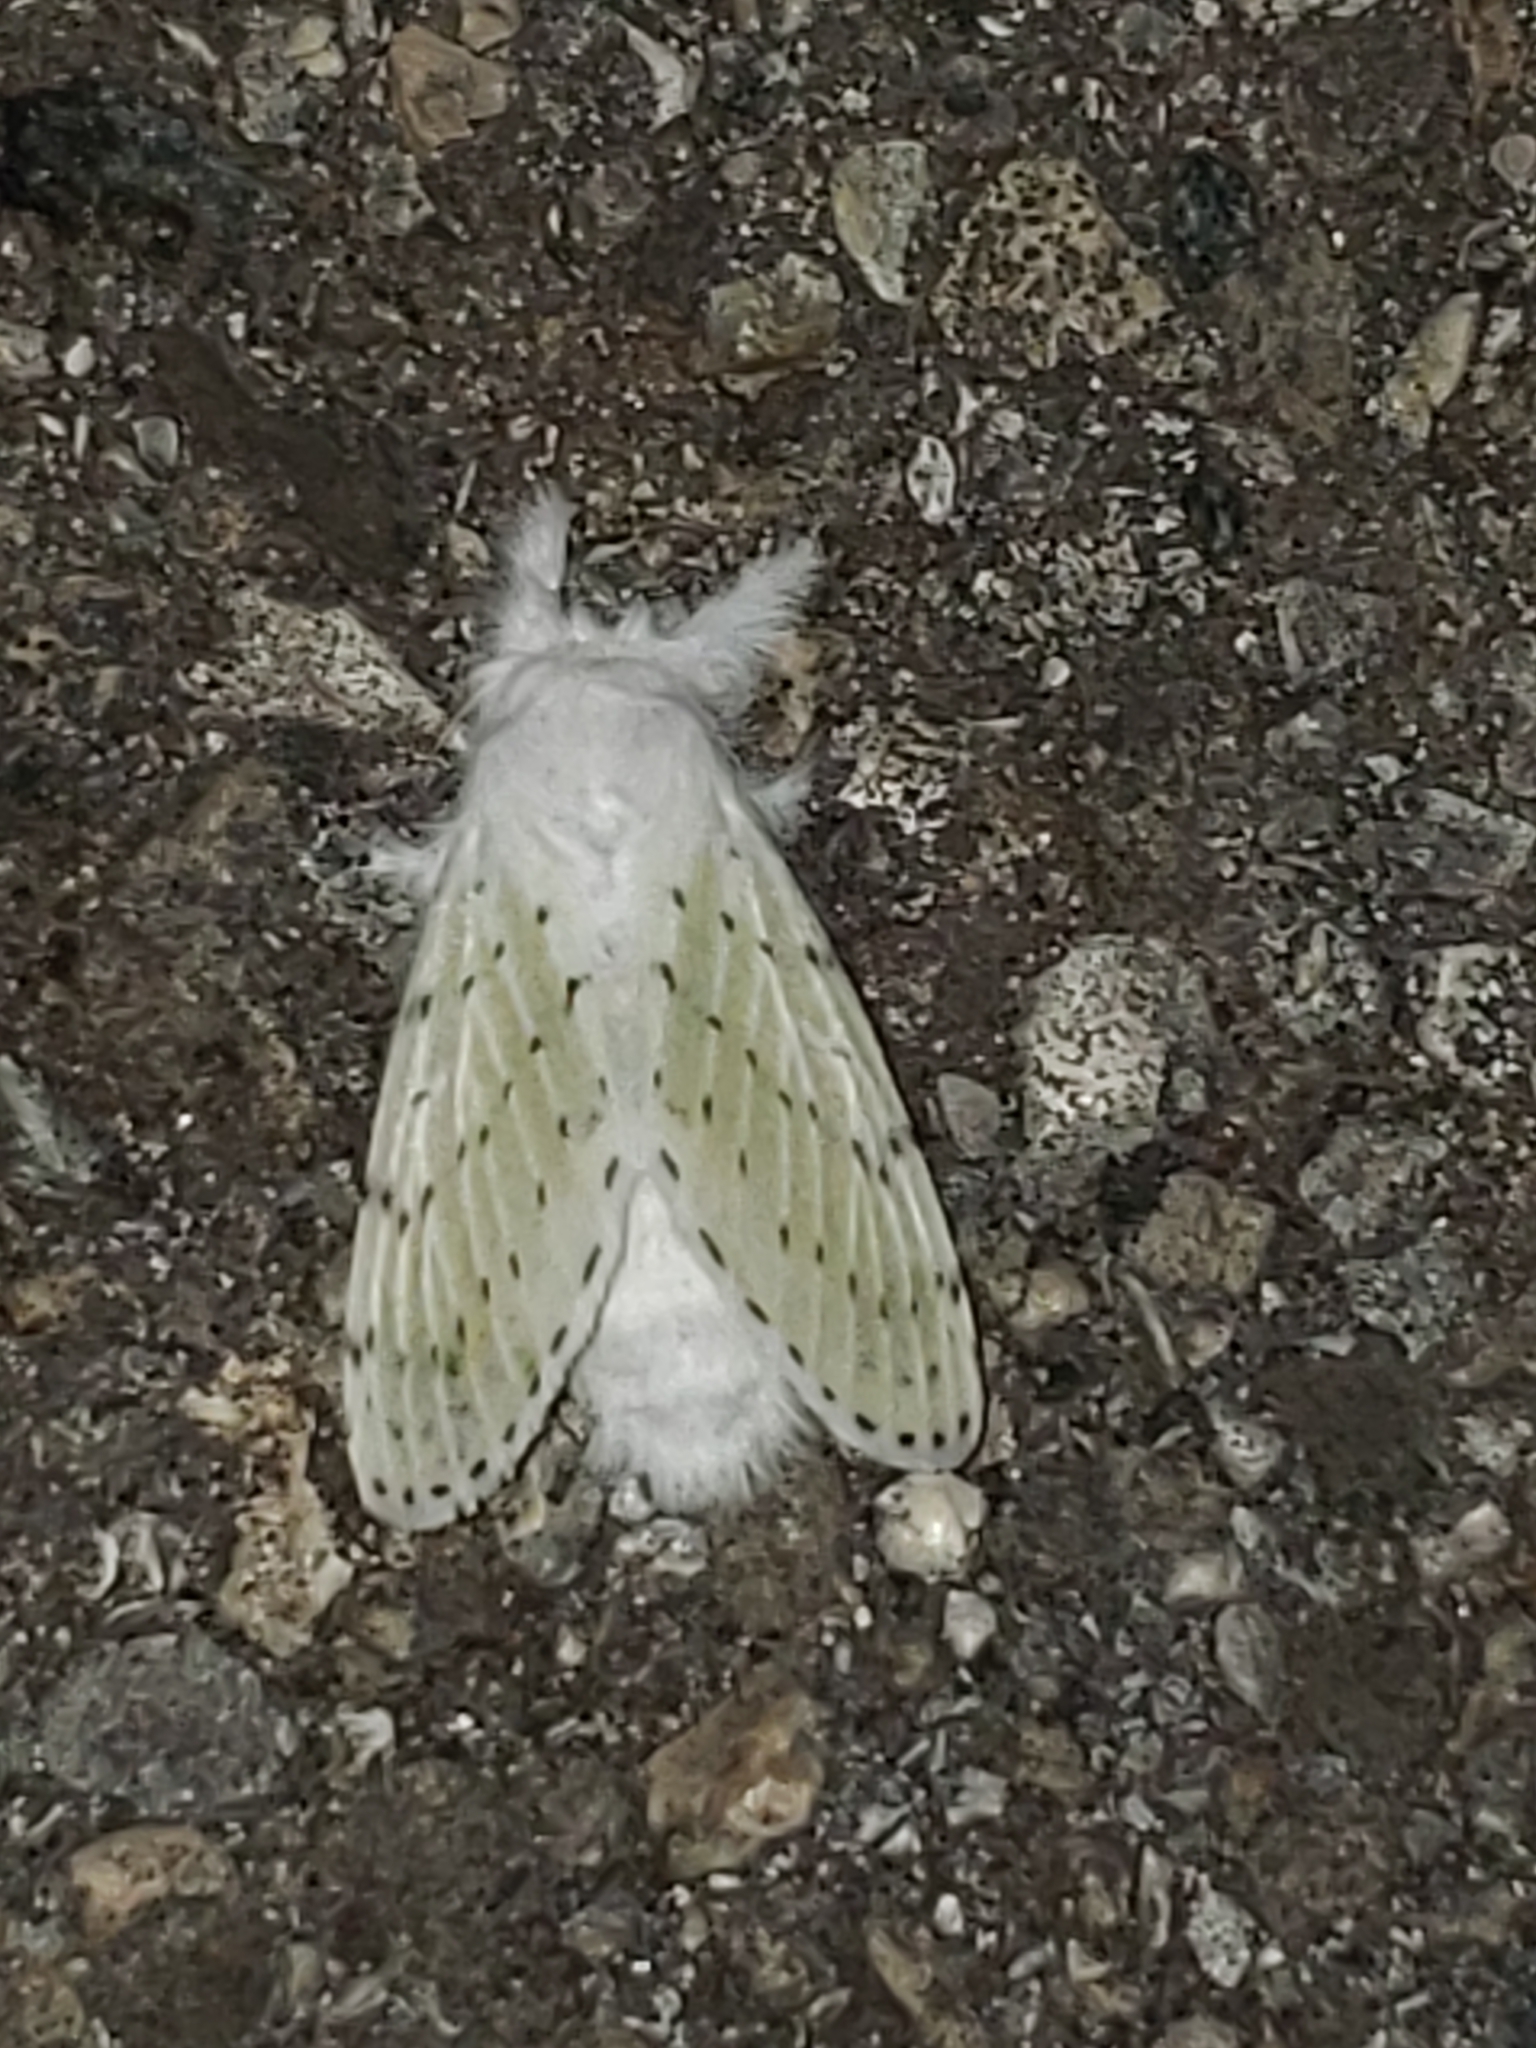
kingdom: Animalia
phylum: Arthropoda
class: Insecta
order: Lepidoptera
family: Lasiocampidae
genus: Artace
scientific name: Artace cribrarius
